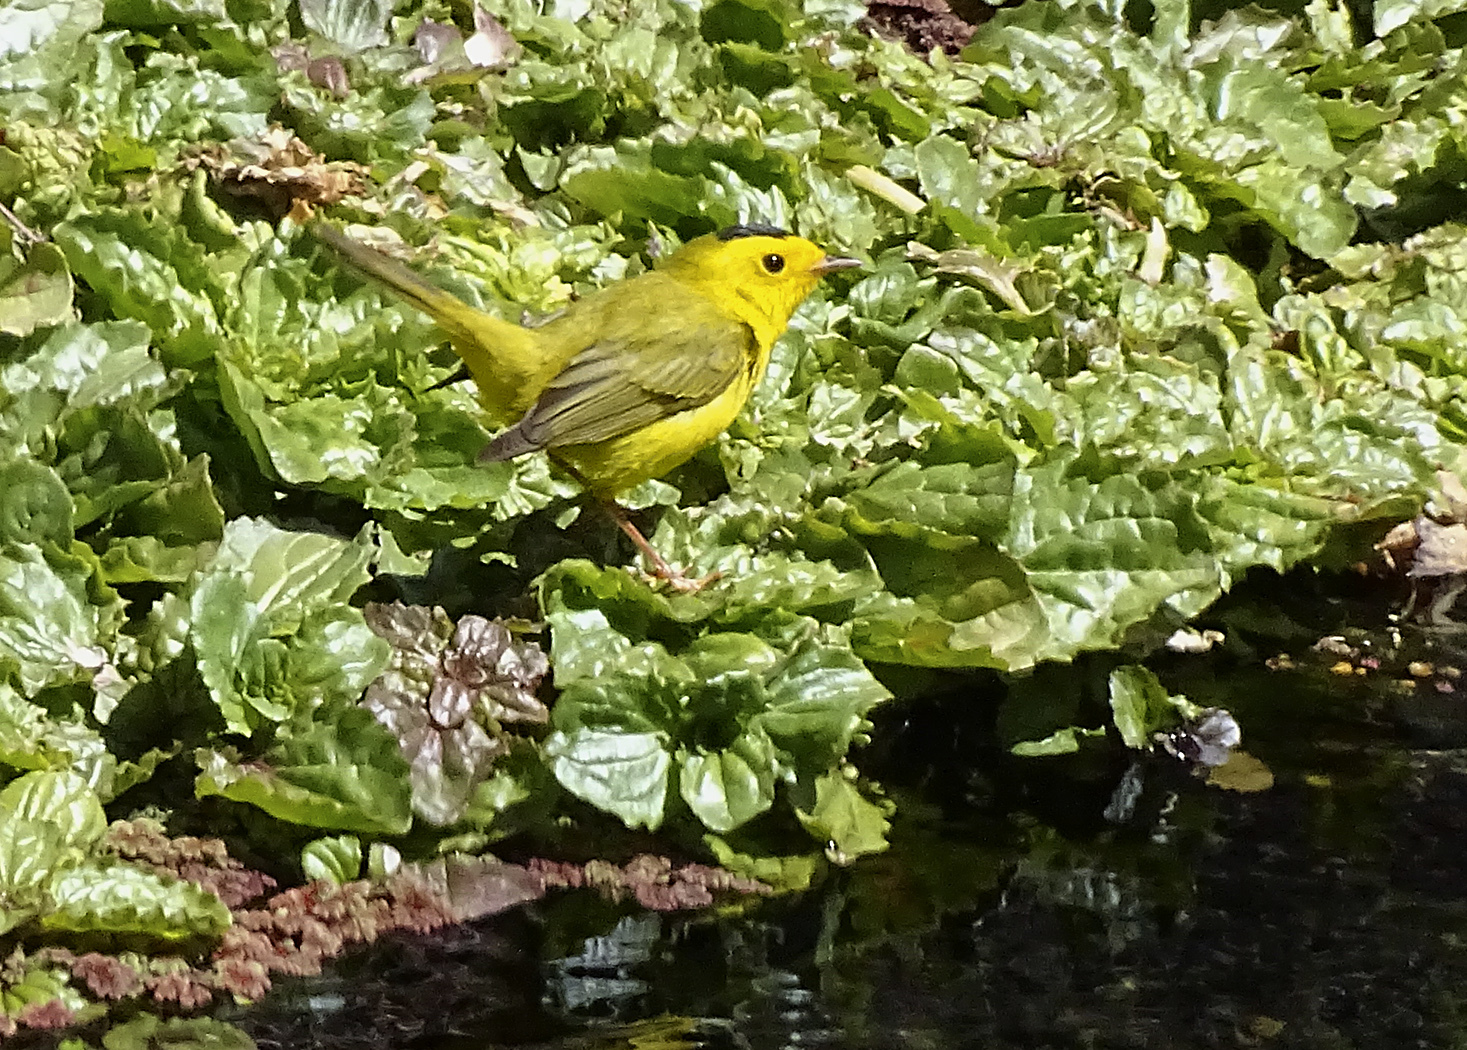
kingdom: Animalia
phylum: Chordata
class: Aves
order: Passeriformes
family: Parulidae
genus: Cardellina
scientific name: Cardellina pusilla
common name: Wilson's warbler
